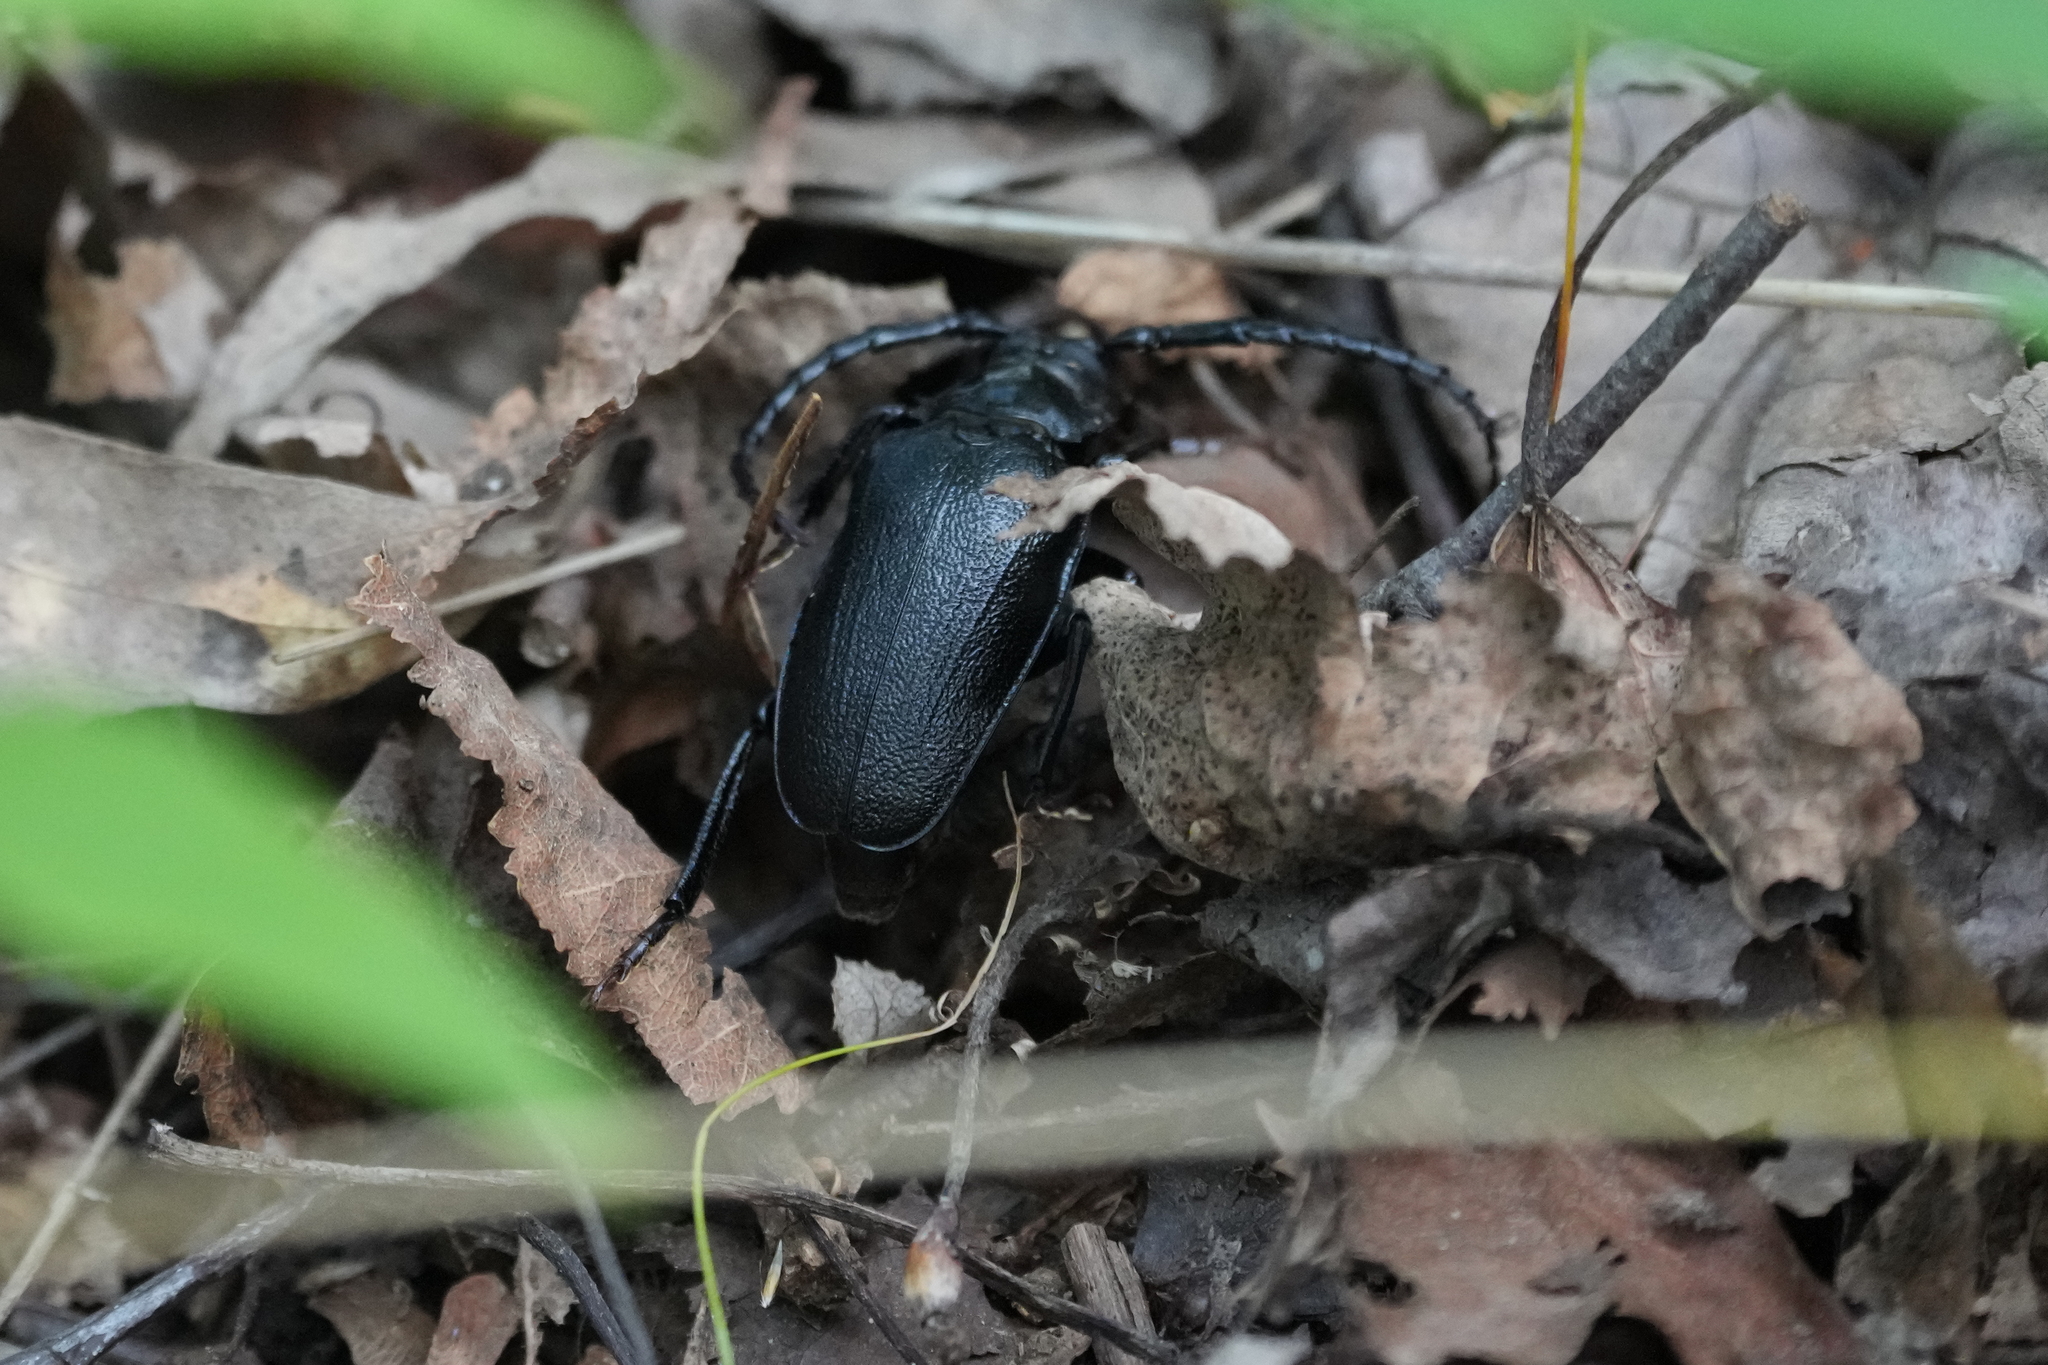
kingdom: Animalia
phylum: Arthropoda
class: Insecta
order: Coleoptera
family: Cerambycidae
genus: Prionus
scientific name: Prionus laticollis
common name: Broad necked prionus
